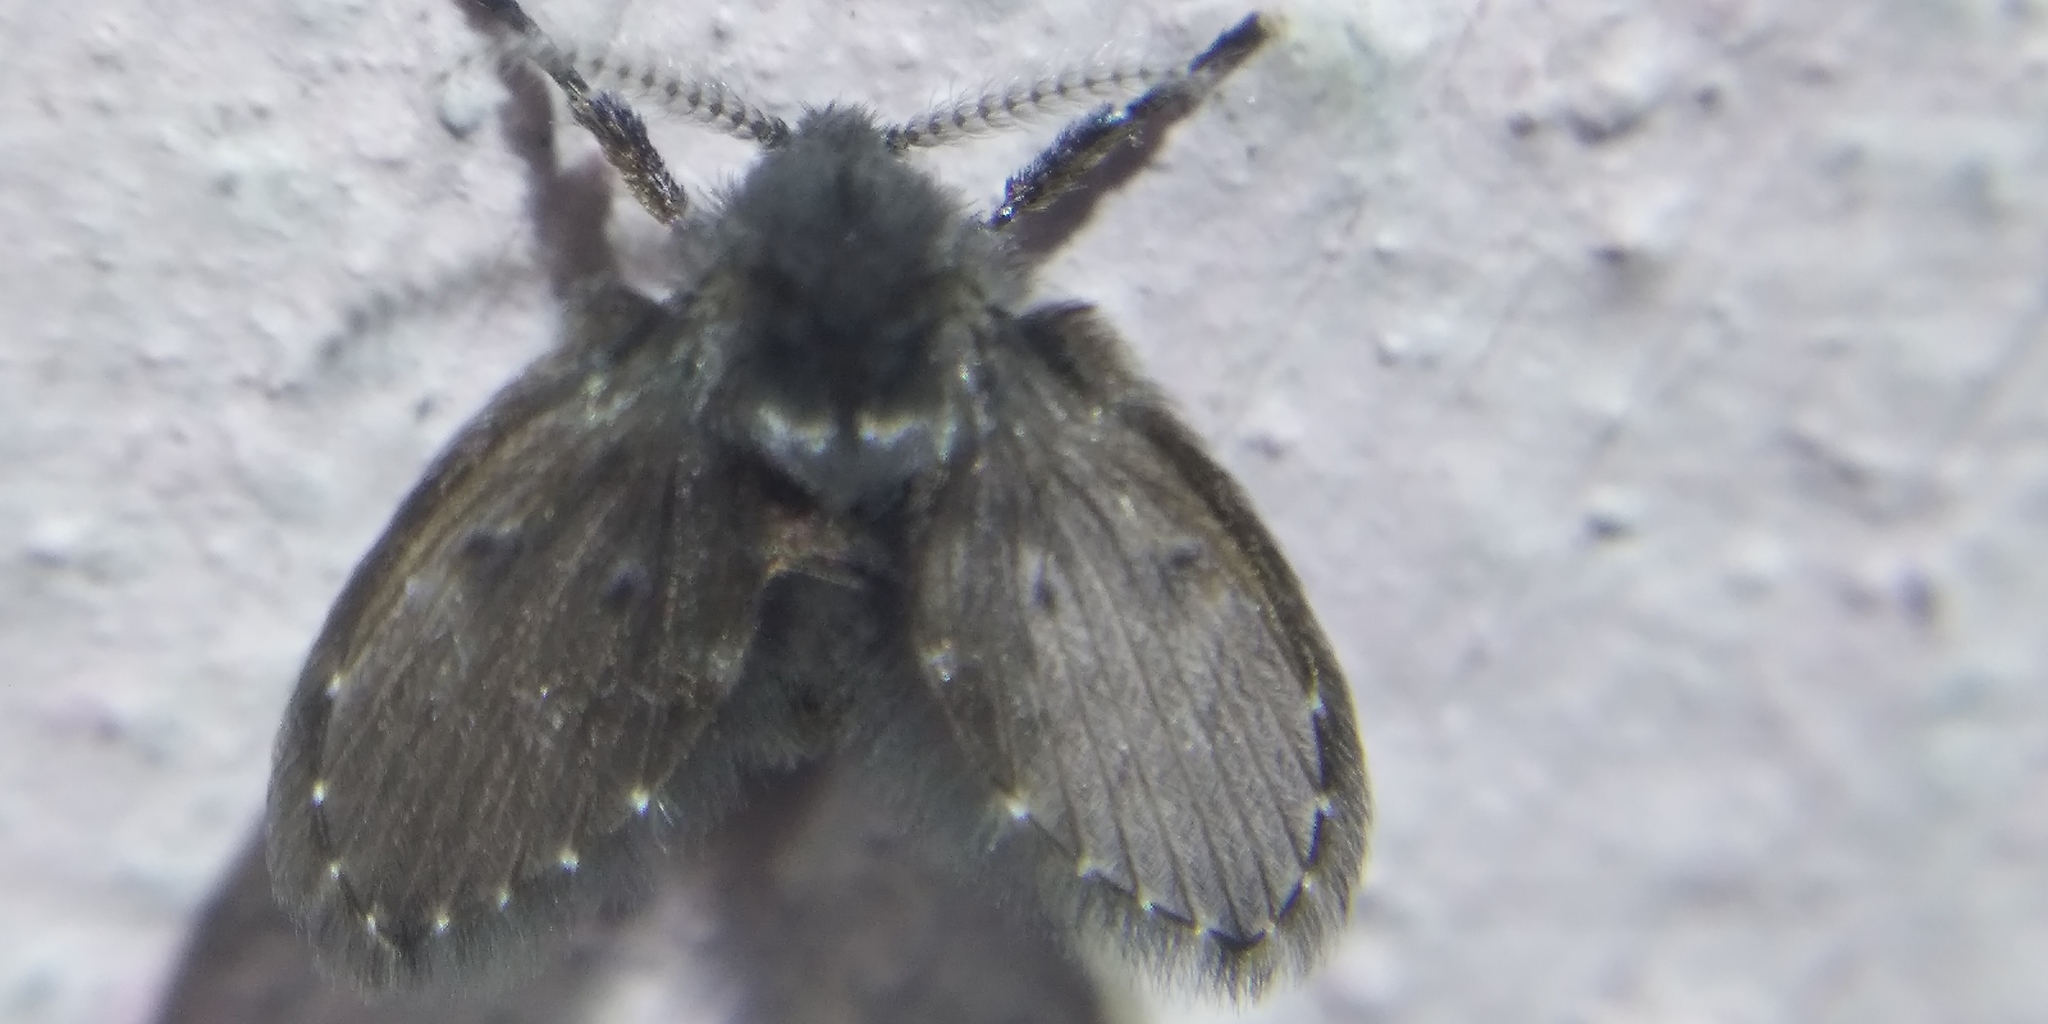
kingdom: Animalia
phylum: Arthropoda
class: Insecta
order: Diptera
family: Psychodidae
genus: Clogmia
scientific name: Clogmia albipunctatus
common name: White-spotted moth fly
